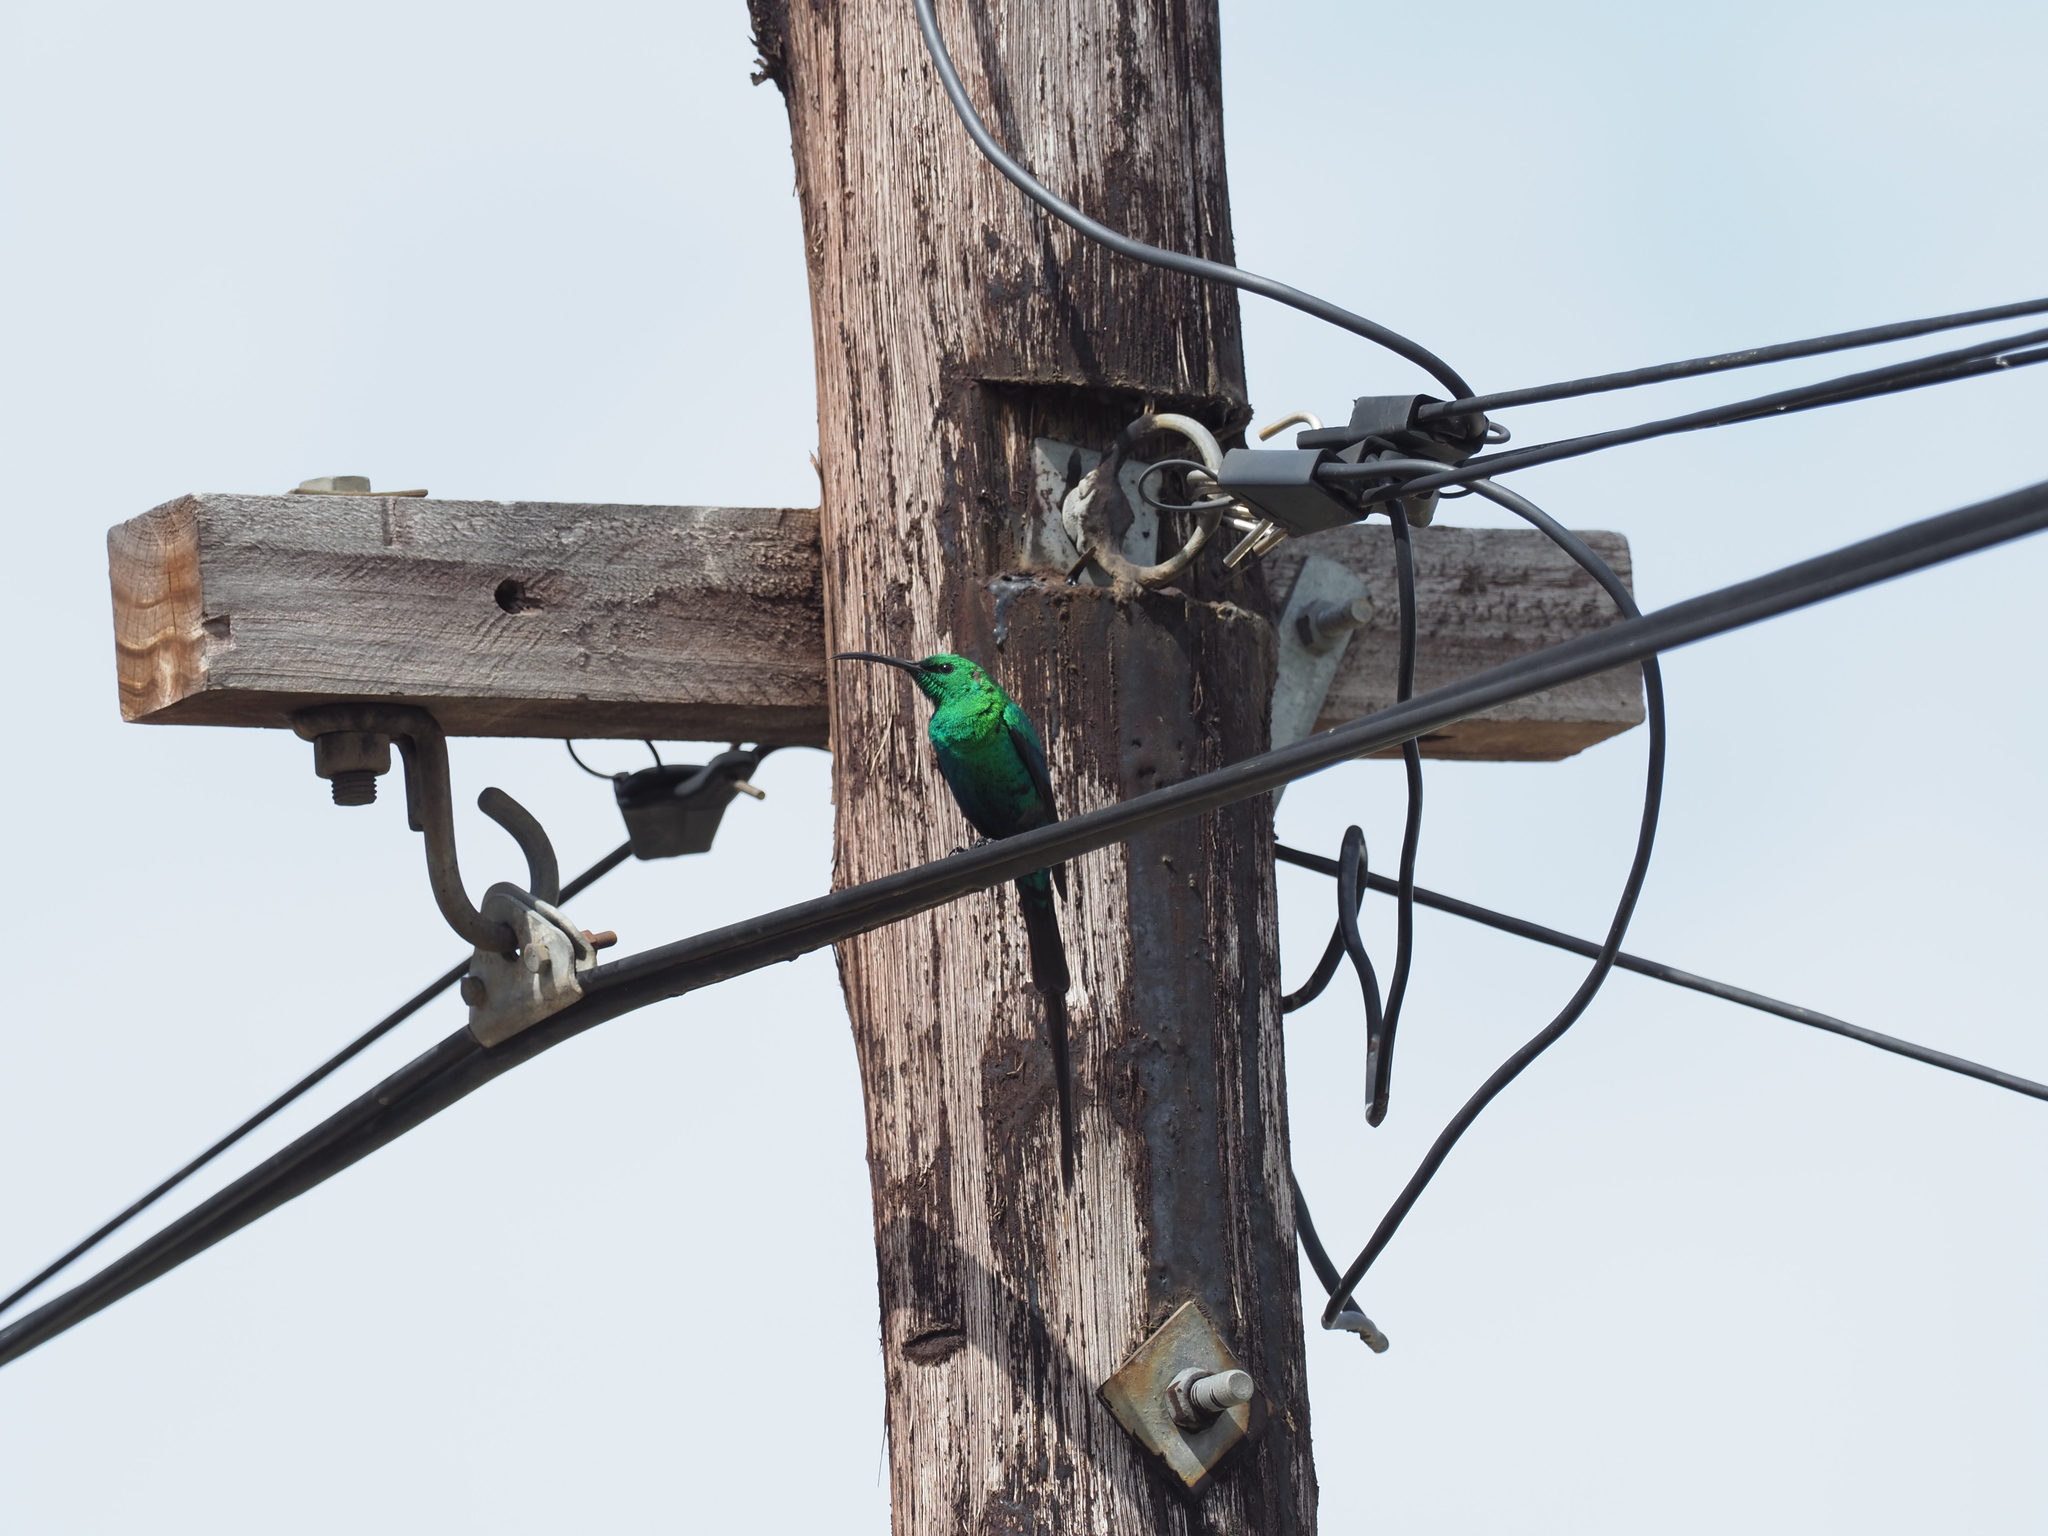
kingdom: Animalia
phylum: Chordata
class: Aves
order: Passeriformes
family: Nectariniidae
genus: Nectarinia
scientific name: Nectarinia famosa
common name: Malachite sunbird
